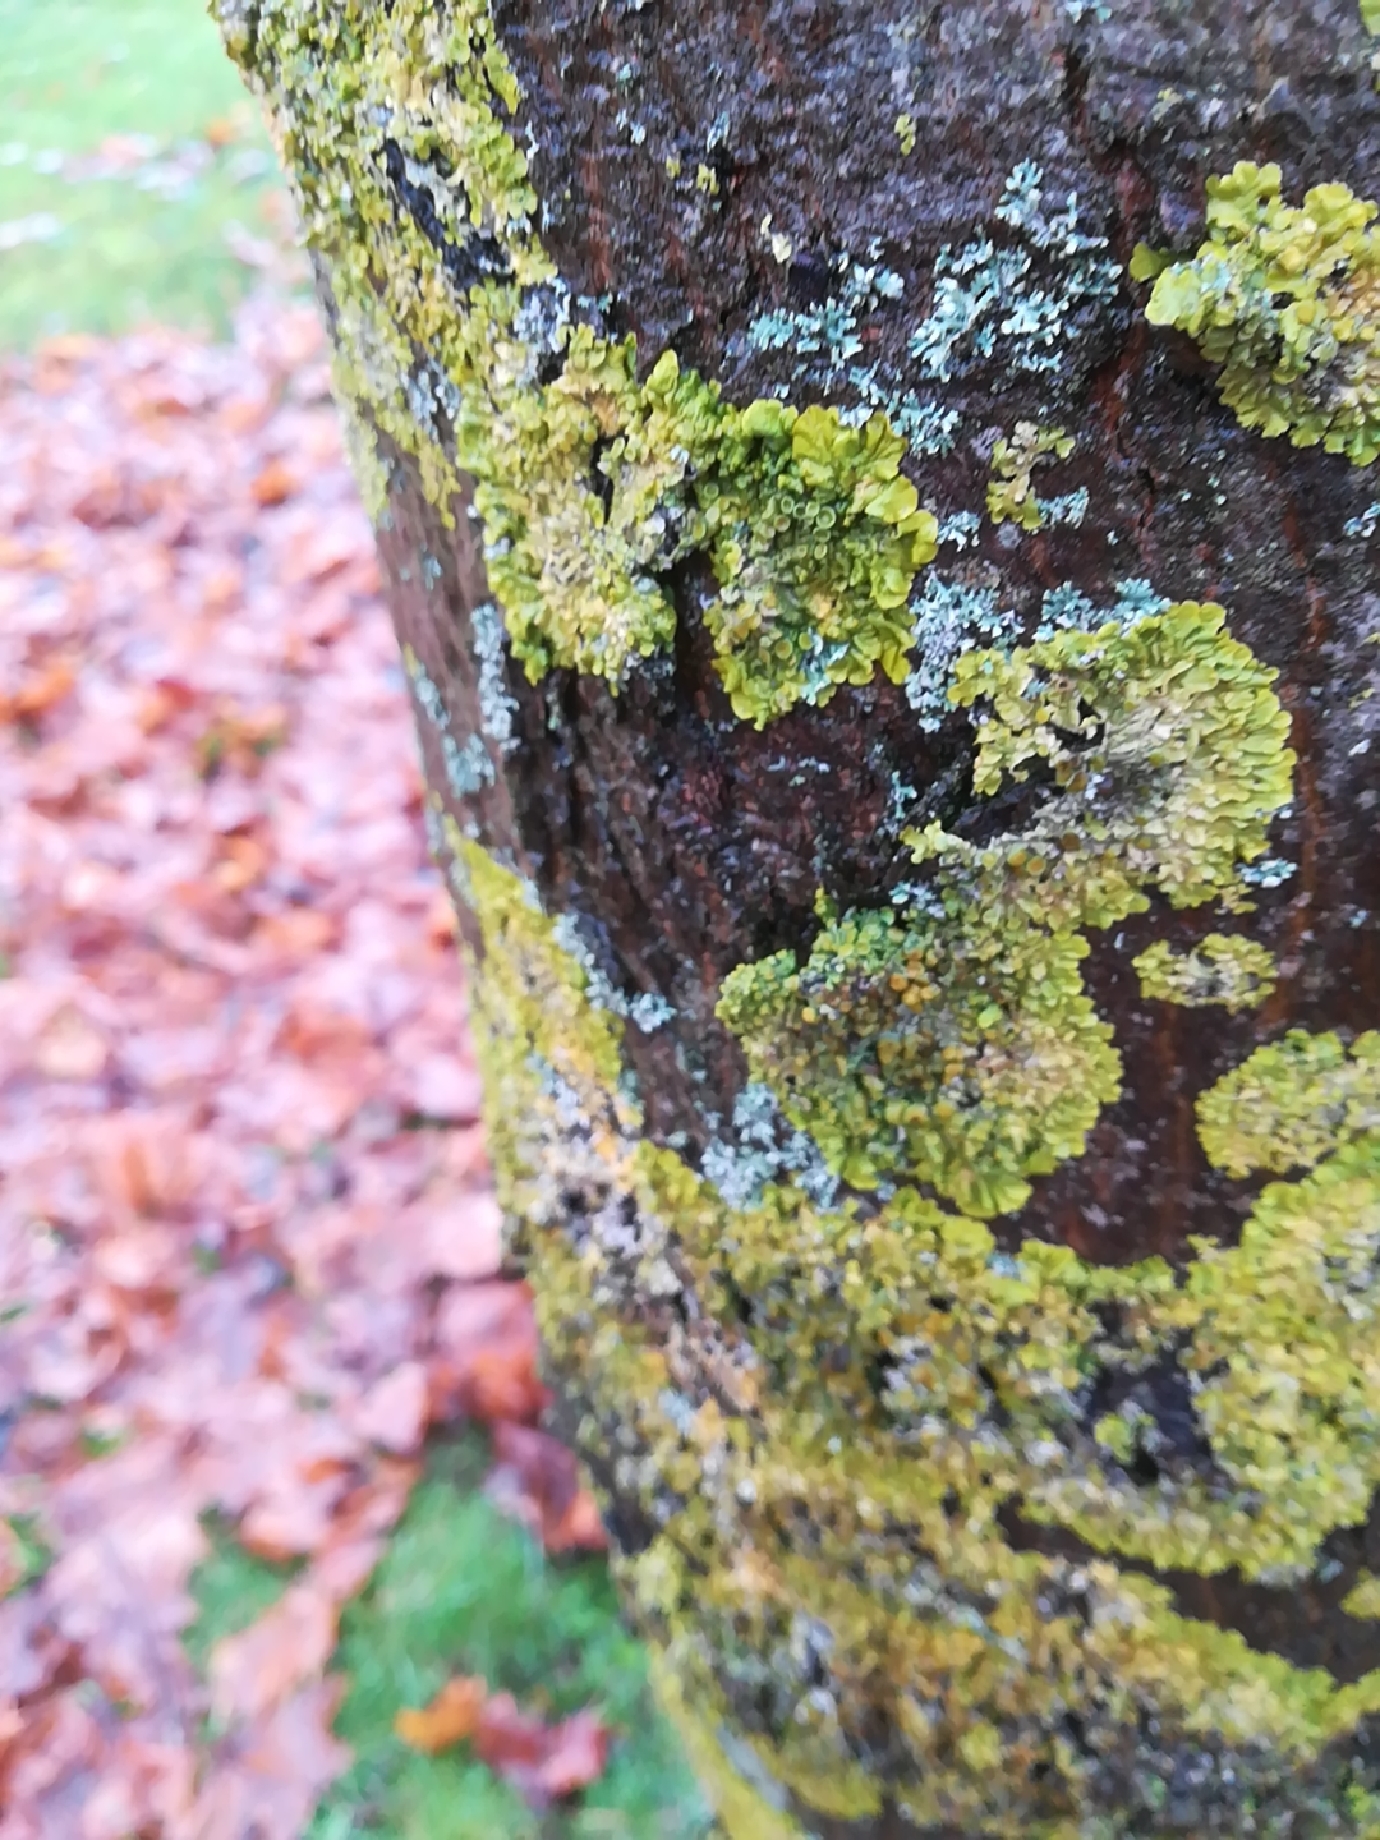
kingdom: Fungi
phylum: Ascomycota
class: Lecanoromycetes
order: Teloschistales
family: Teloschistaceae
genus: Xanthoria
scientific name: Xanthoria parietina
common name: Common orange lichen
